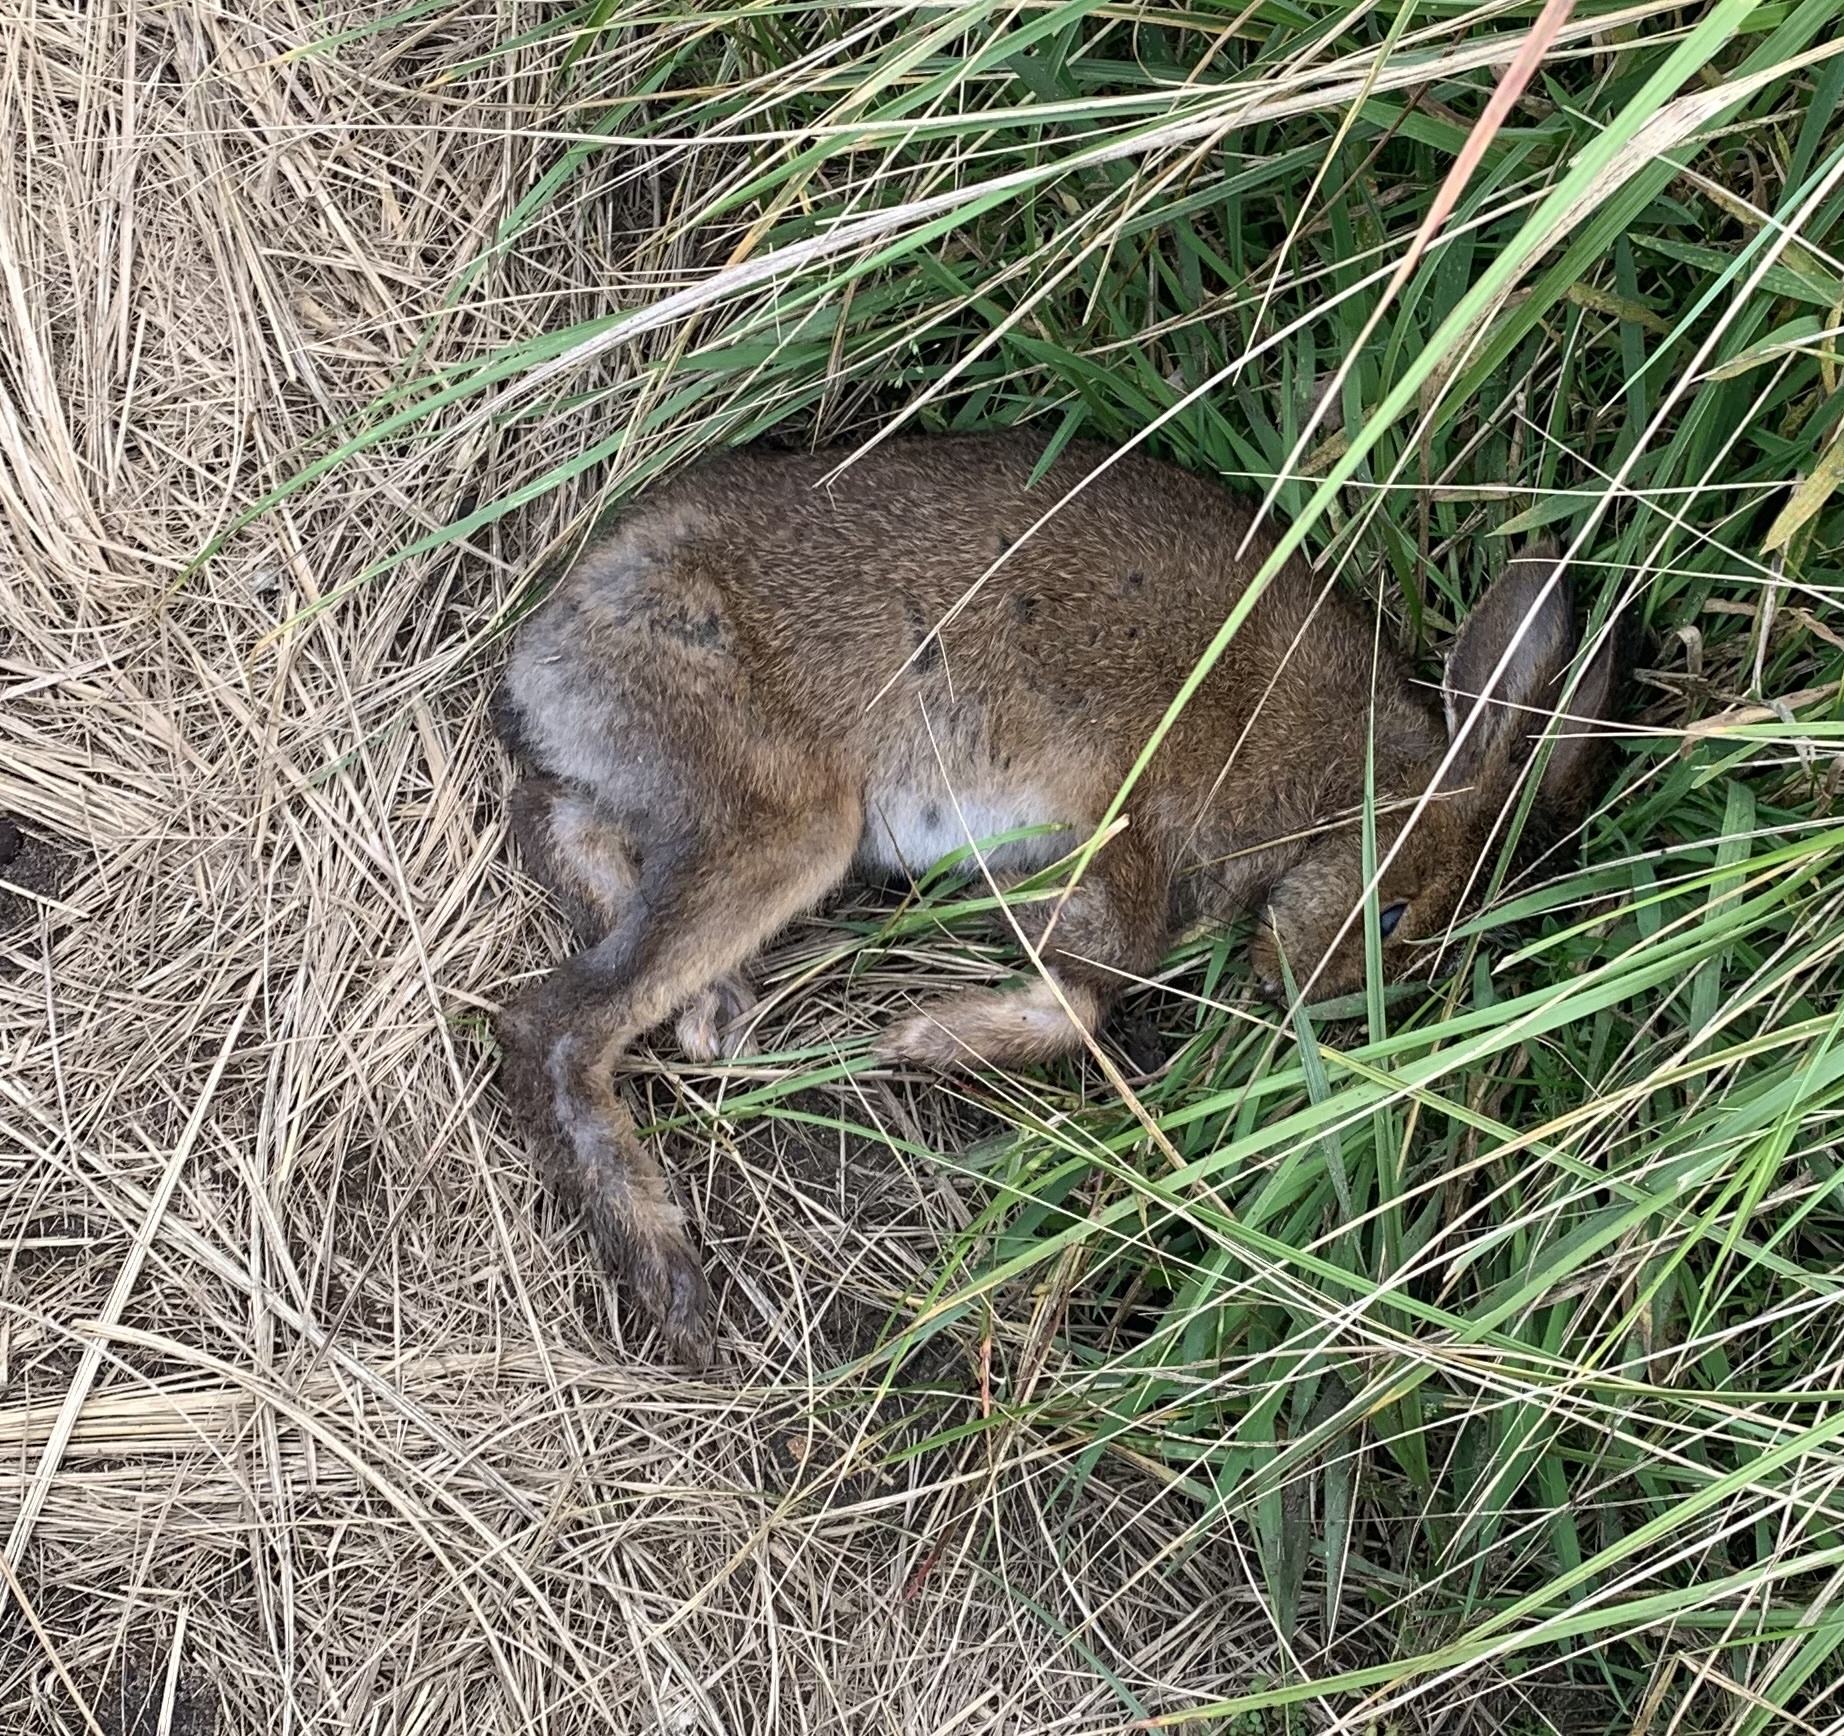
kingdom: Animalia
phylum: Chordata
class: Mammalia
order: Lagomorpha
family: Leporidae
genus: Lepus
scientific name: Lepus americanus
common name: Snowshoe hare
